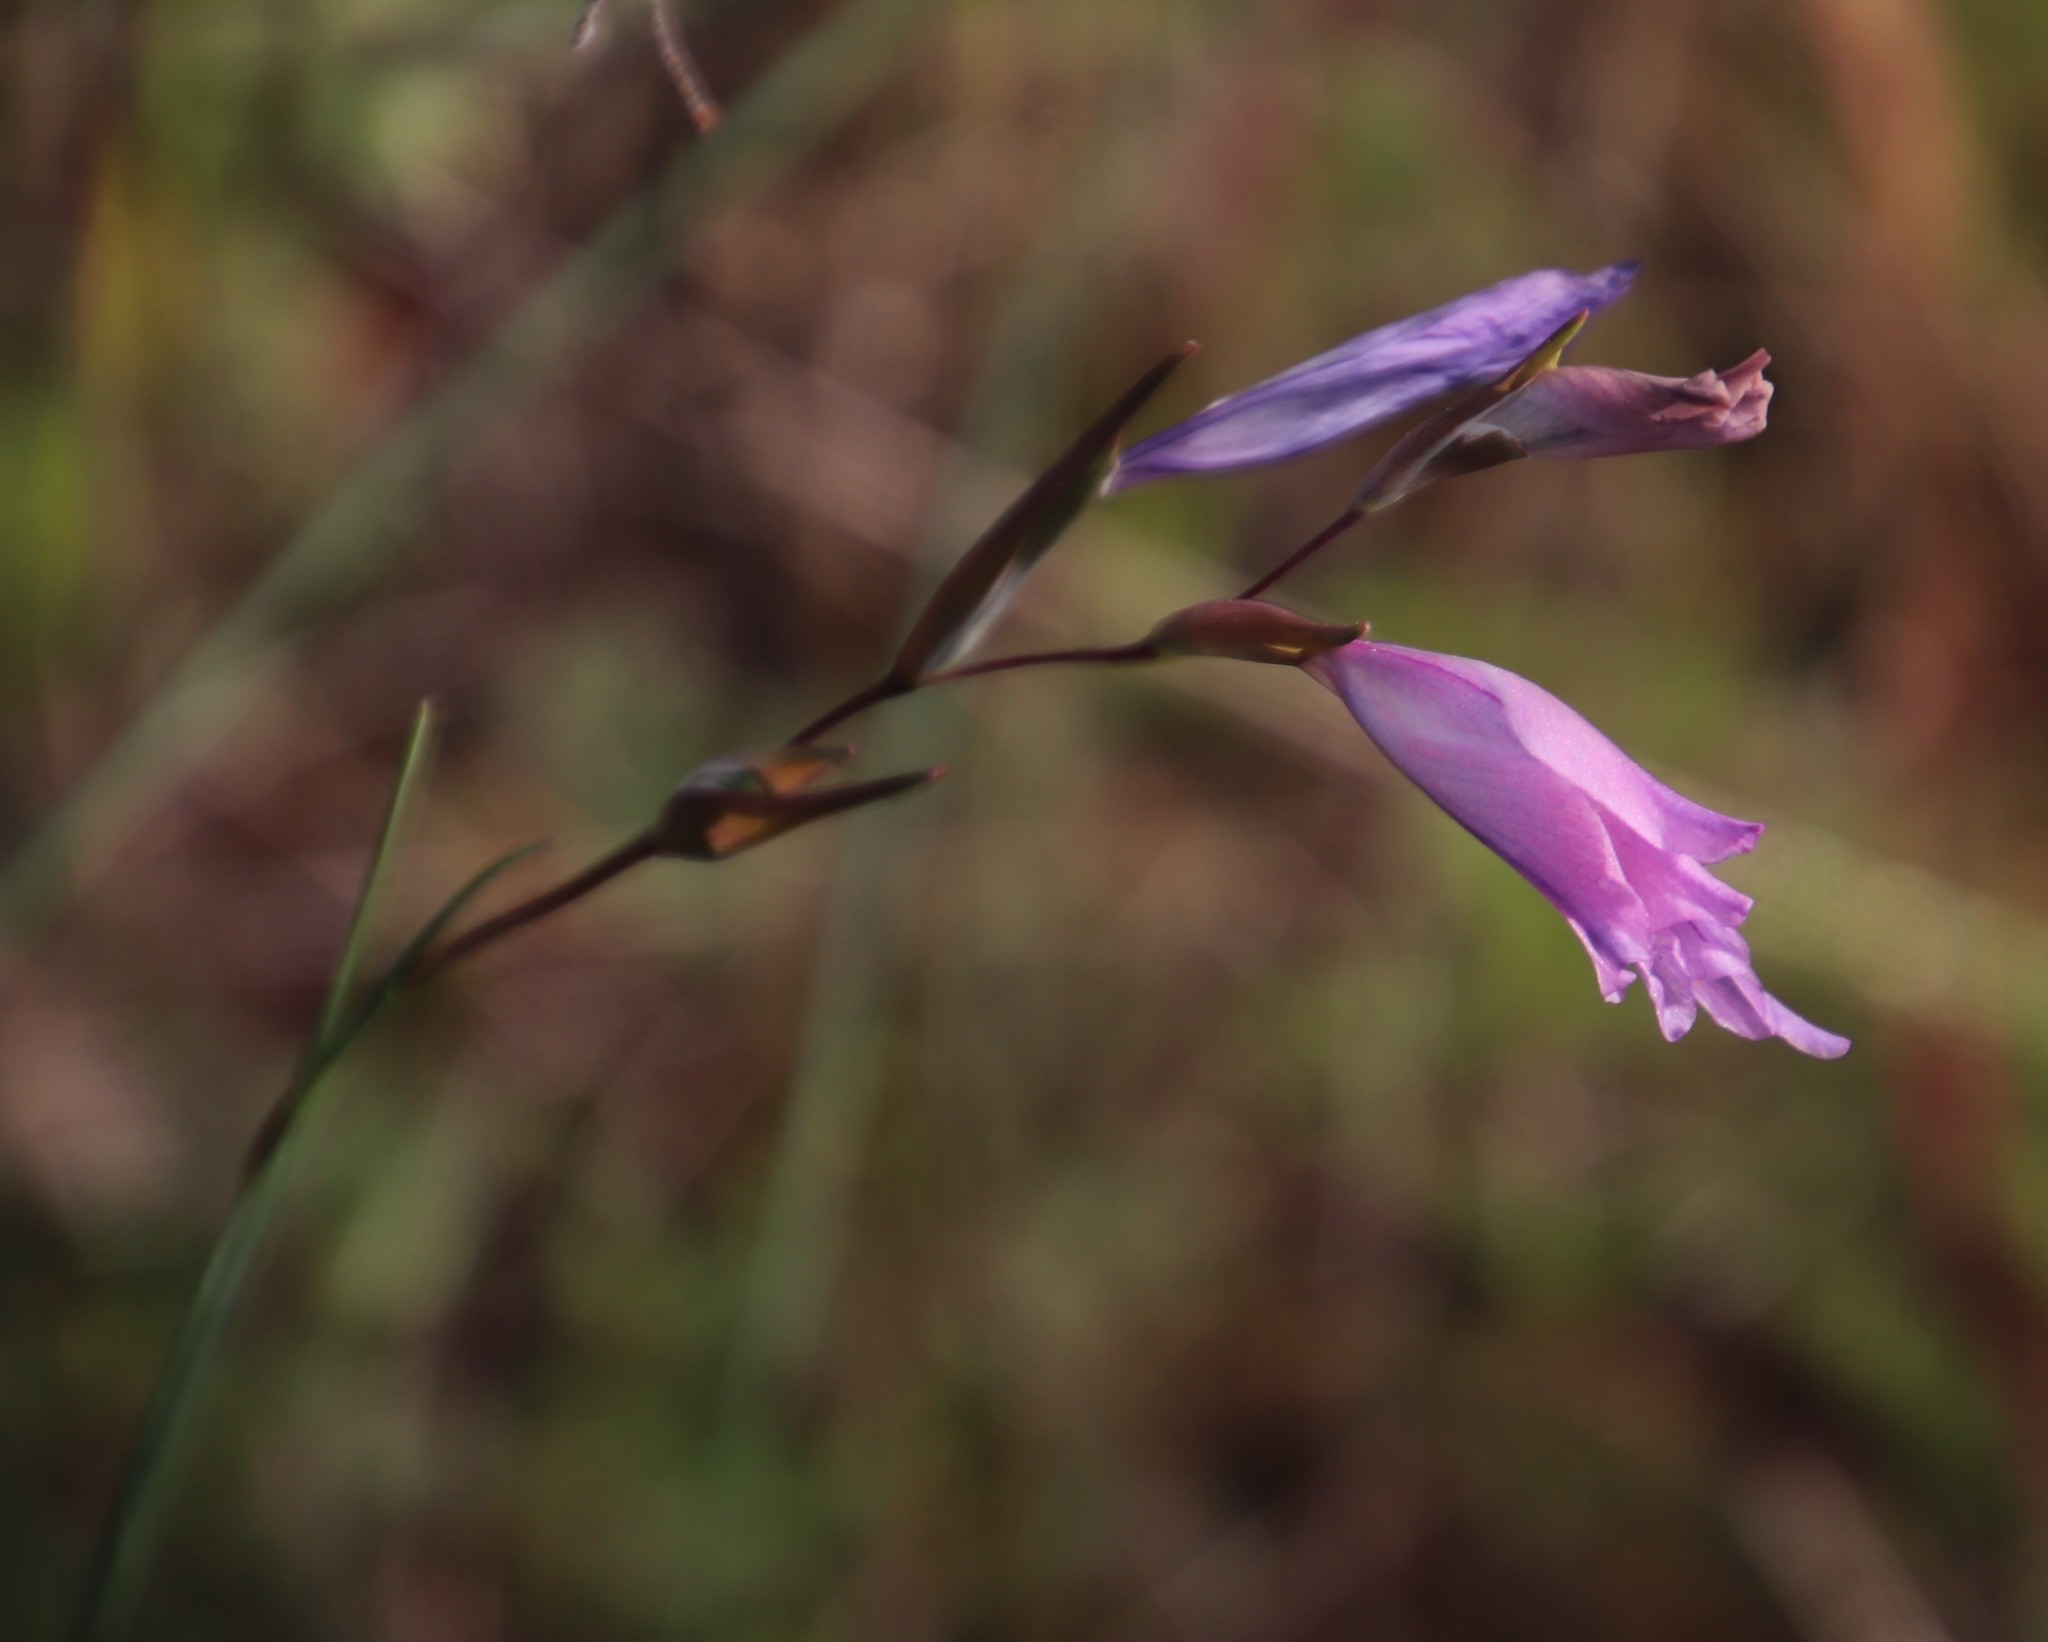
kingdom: Plantae
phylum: Tracheophyta
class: Liliopsida
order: Asparagales
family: Iridaceae
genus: Gladiolus
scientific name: Gladiolus hirsutus
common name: Small pink afrikaner
